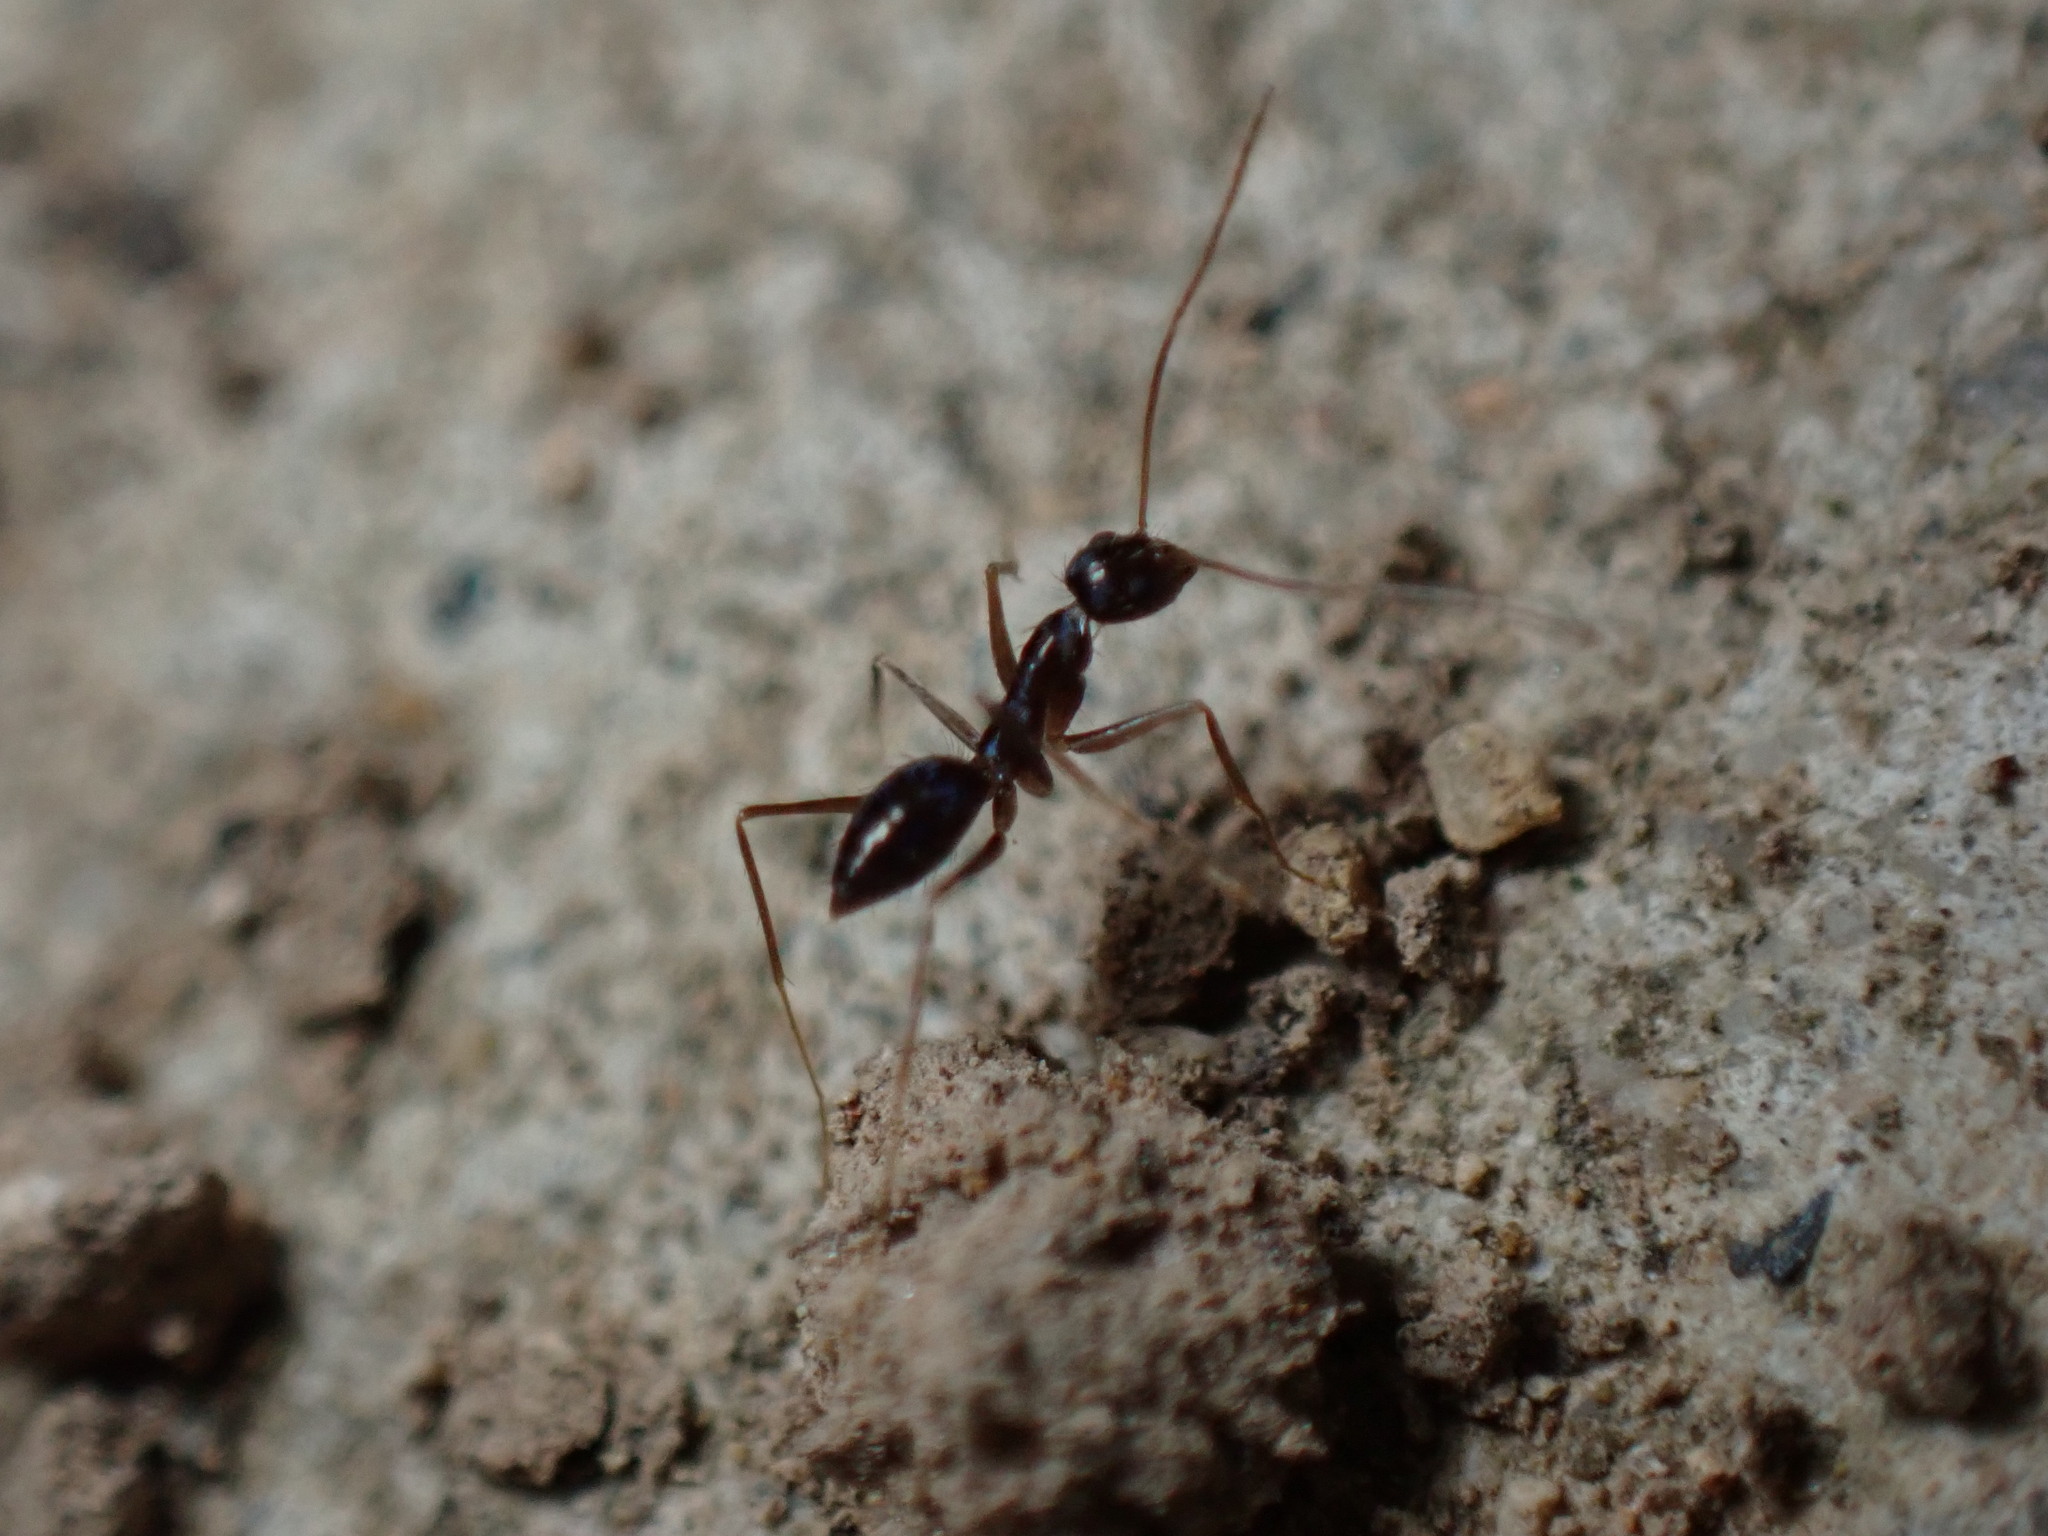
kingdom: Animalia
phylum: Arthropoda
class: Insecta
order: Hymenoptera
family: Formicidae
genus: Paratrechina
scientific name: Paratrechina longicornis
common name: Longhorned crazy ant
